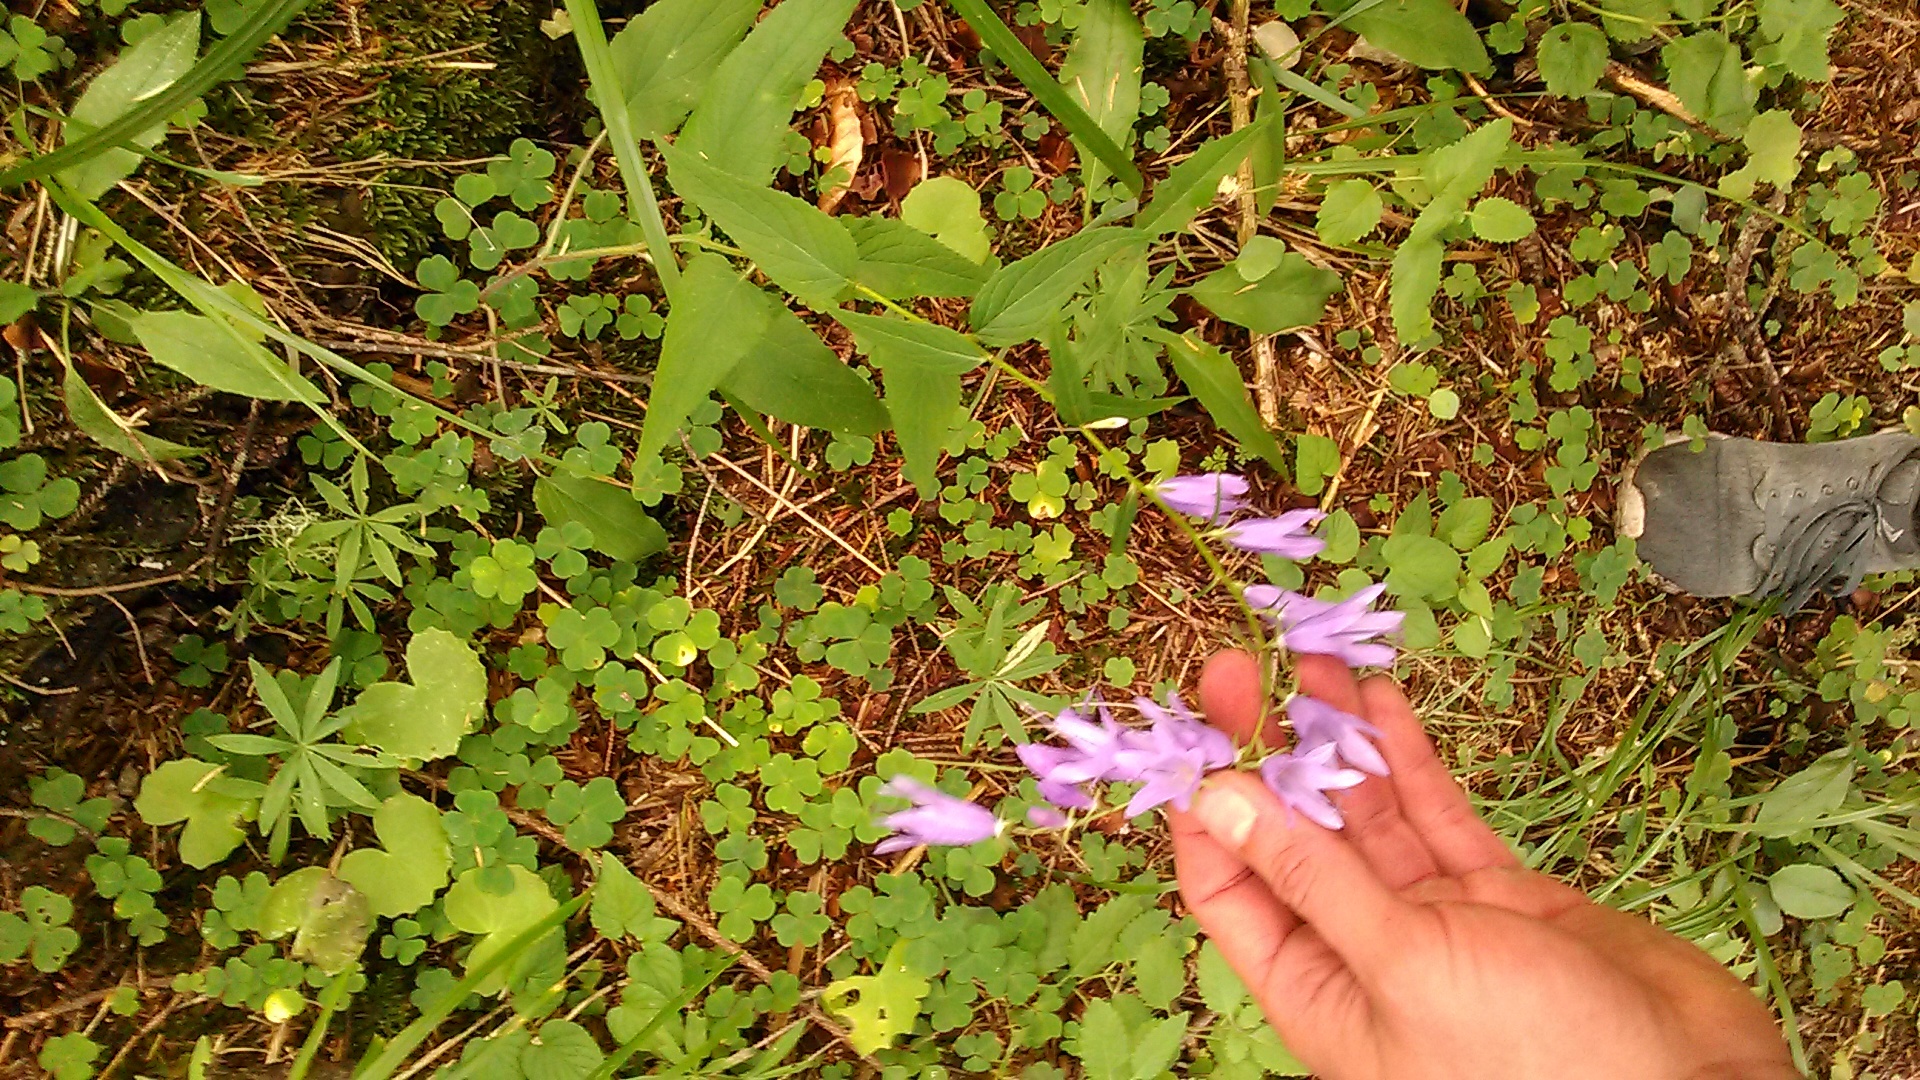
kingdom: Plantae
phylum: Tracheophyta
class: Magnoliopsida
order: Asterales
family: Campanulaceae
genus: Campanula
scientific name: Campanula rapunculoides
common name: Creeping bellflower
